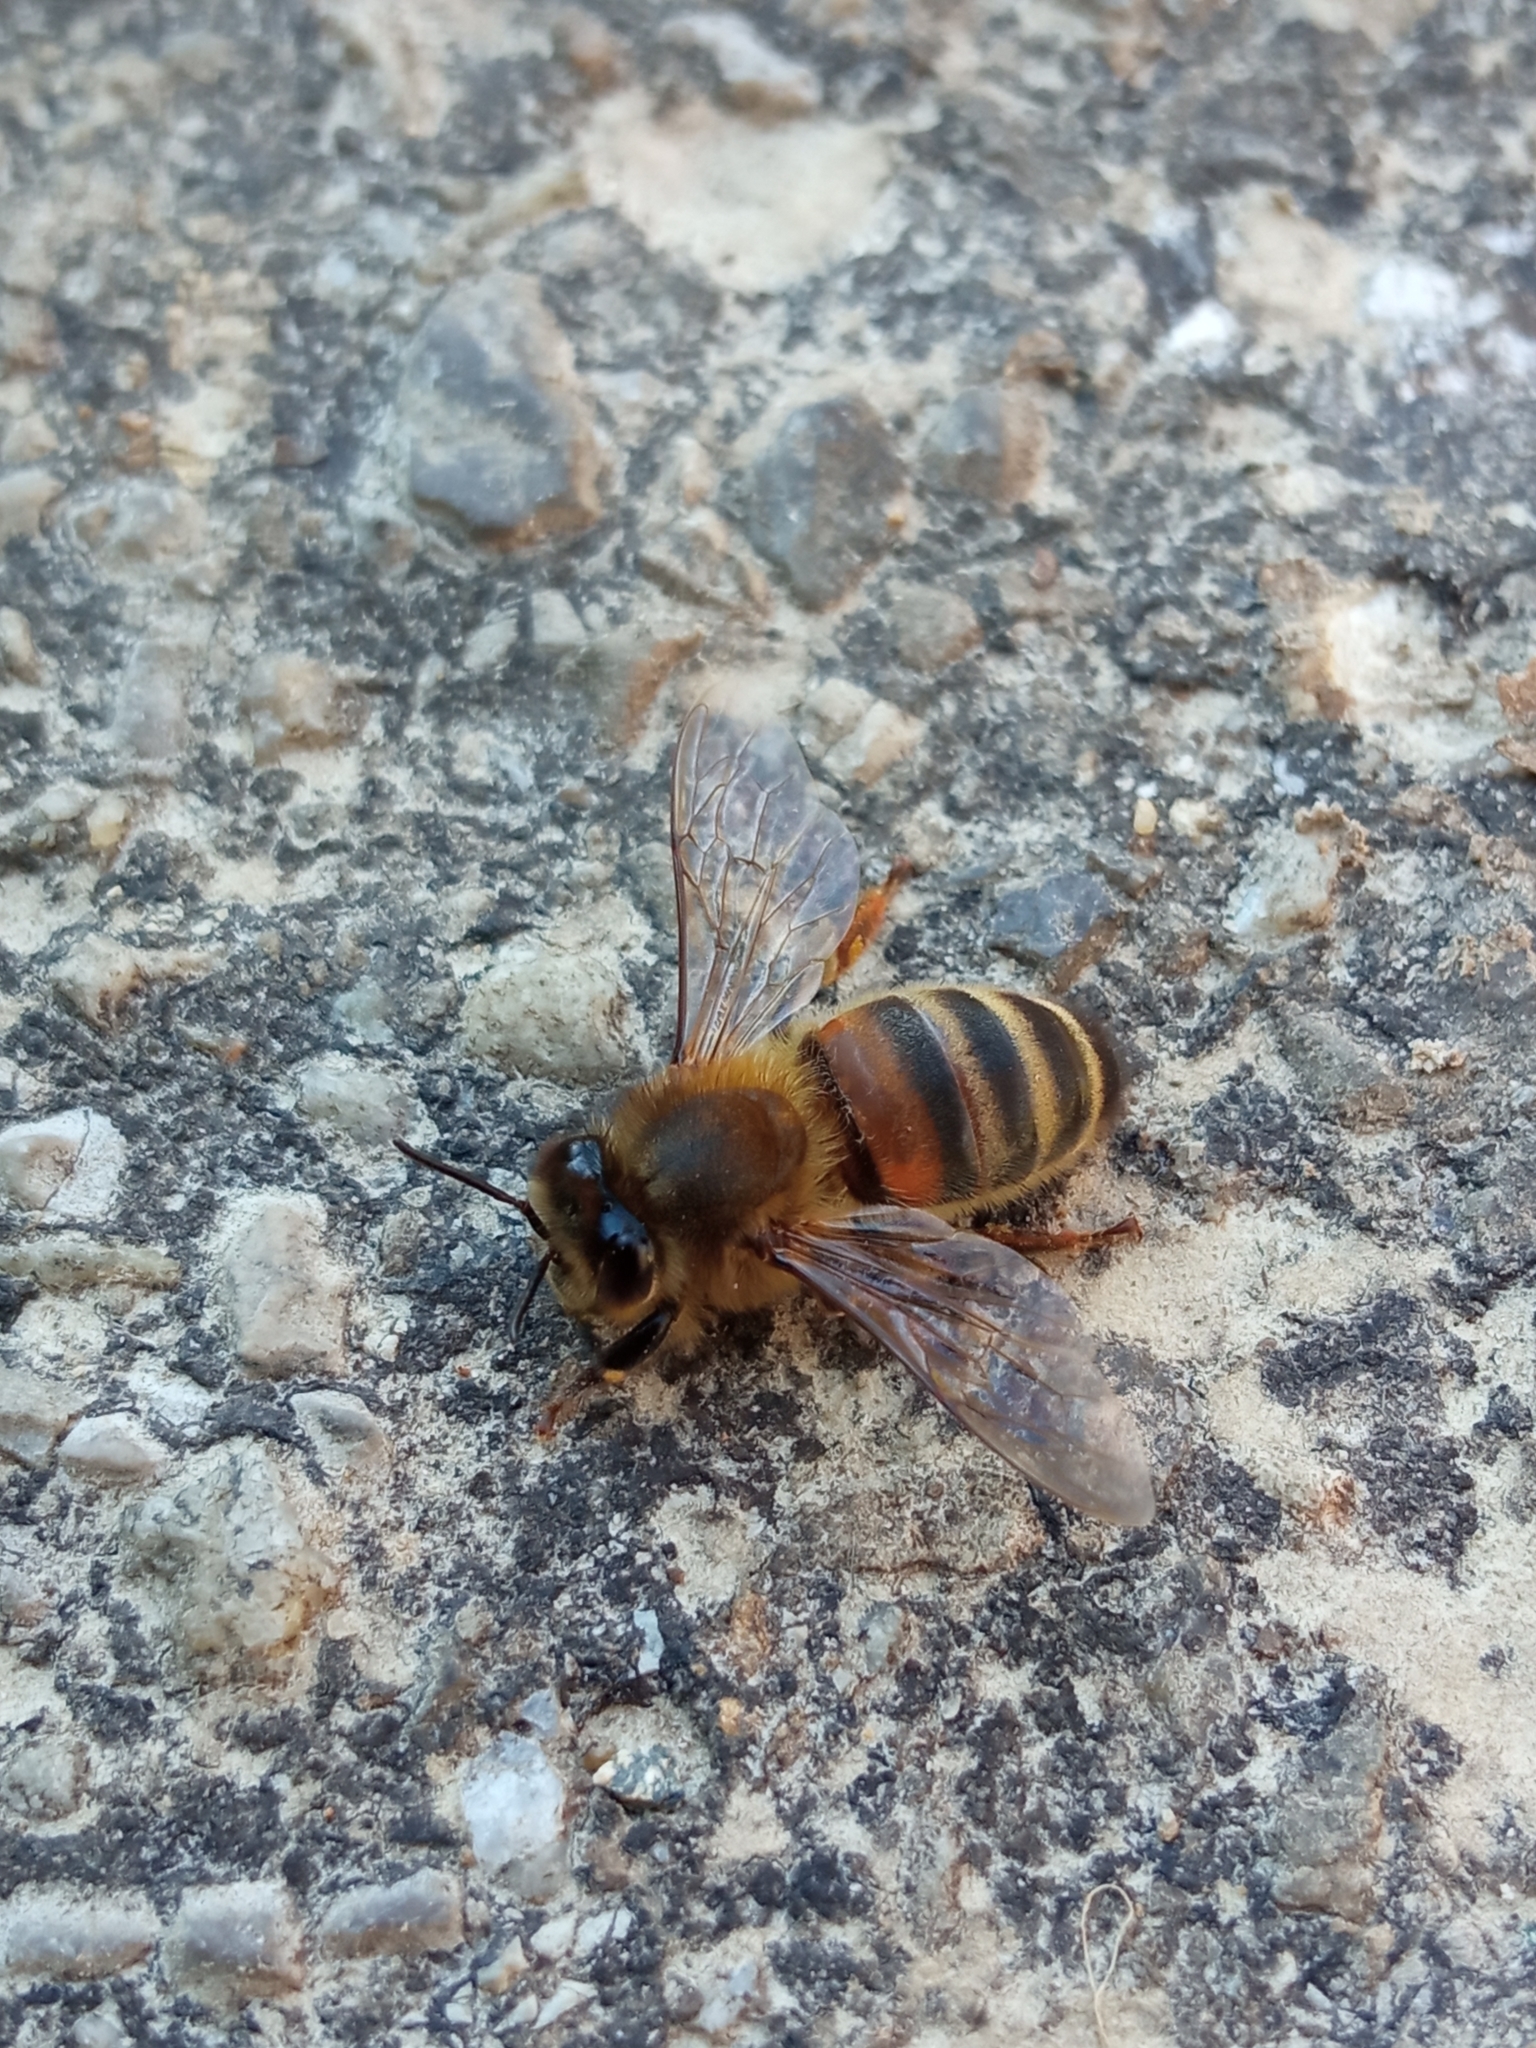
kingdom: Animalia
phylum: Arthropoda
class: Insecta
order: Hymenoptera
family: Apidae
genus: Apis
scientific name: Apis mellifera
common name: Honey bee
